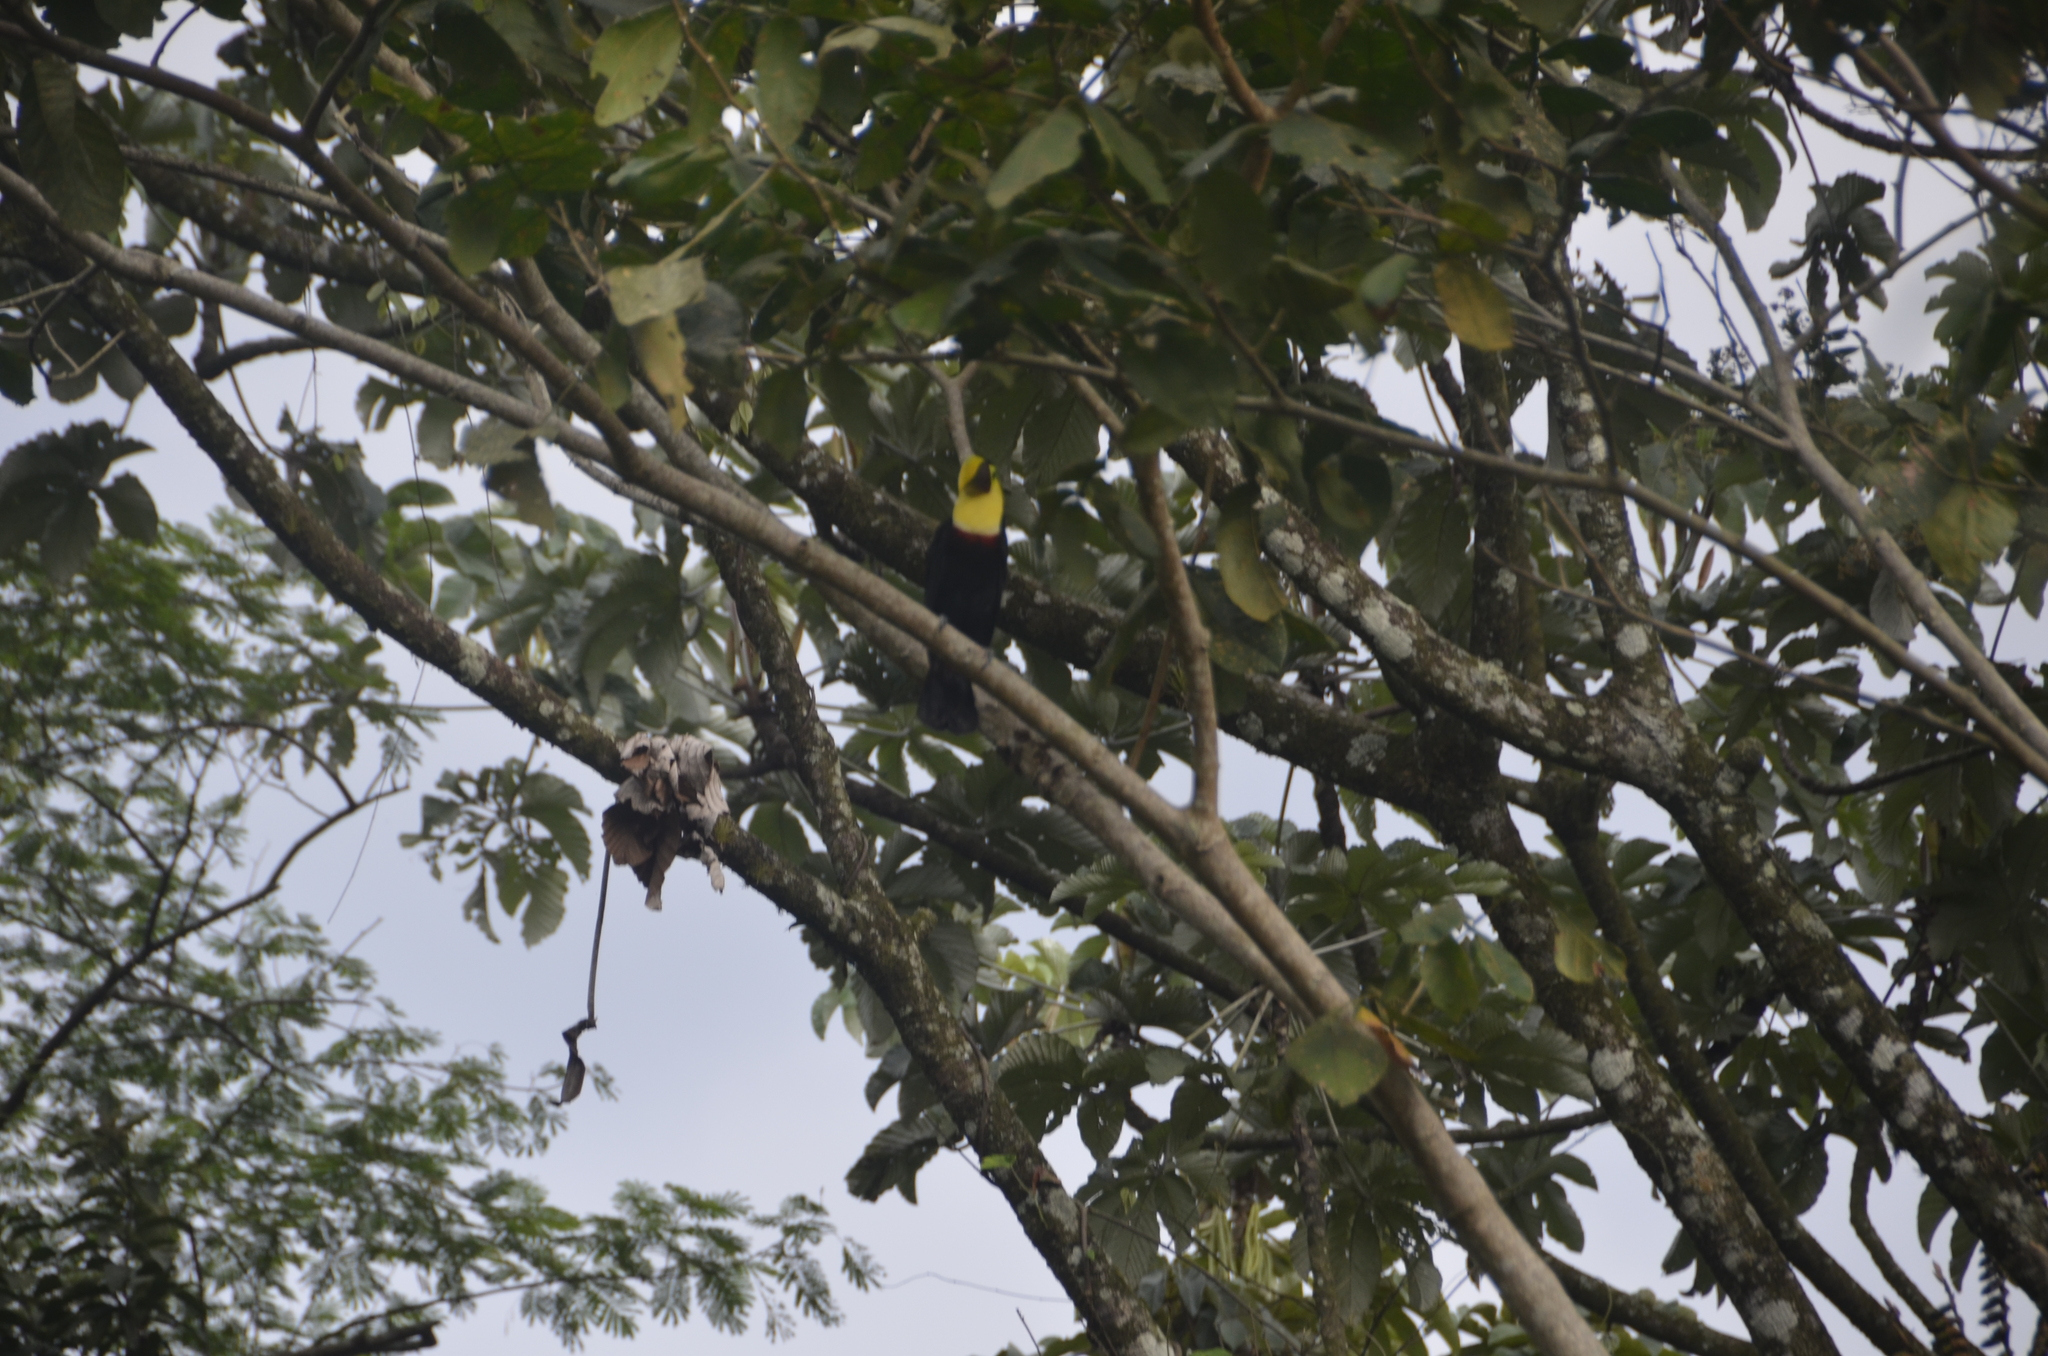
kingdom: Animalia
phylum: Chordata
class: Aves
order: Piciformes
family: Ramphastidae
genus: Ramphastos
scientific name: Ramphastos ambiguus
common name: Yellow-throated toucan
